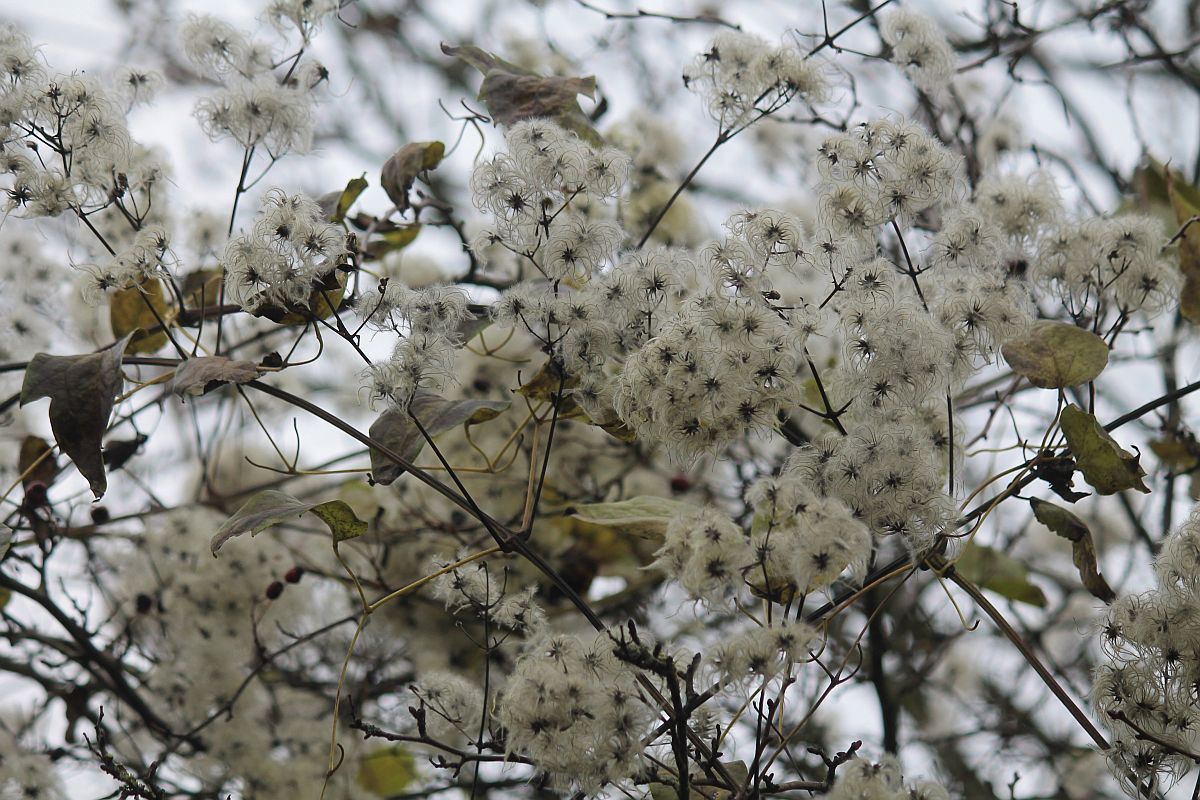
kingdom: Plantae
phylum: Tracheophyta
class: Magnoliopsida
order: Ranunculales
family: Ranunculaceae
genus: Clematis
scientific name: Clematis vitalba
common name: Evergreen clematis
